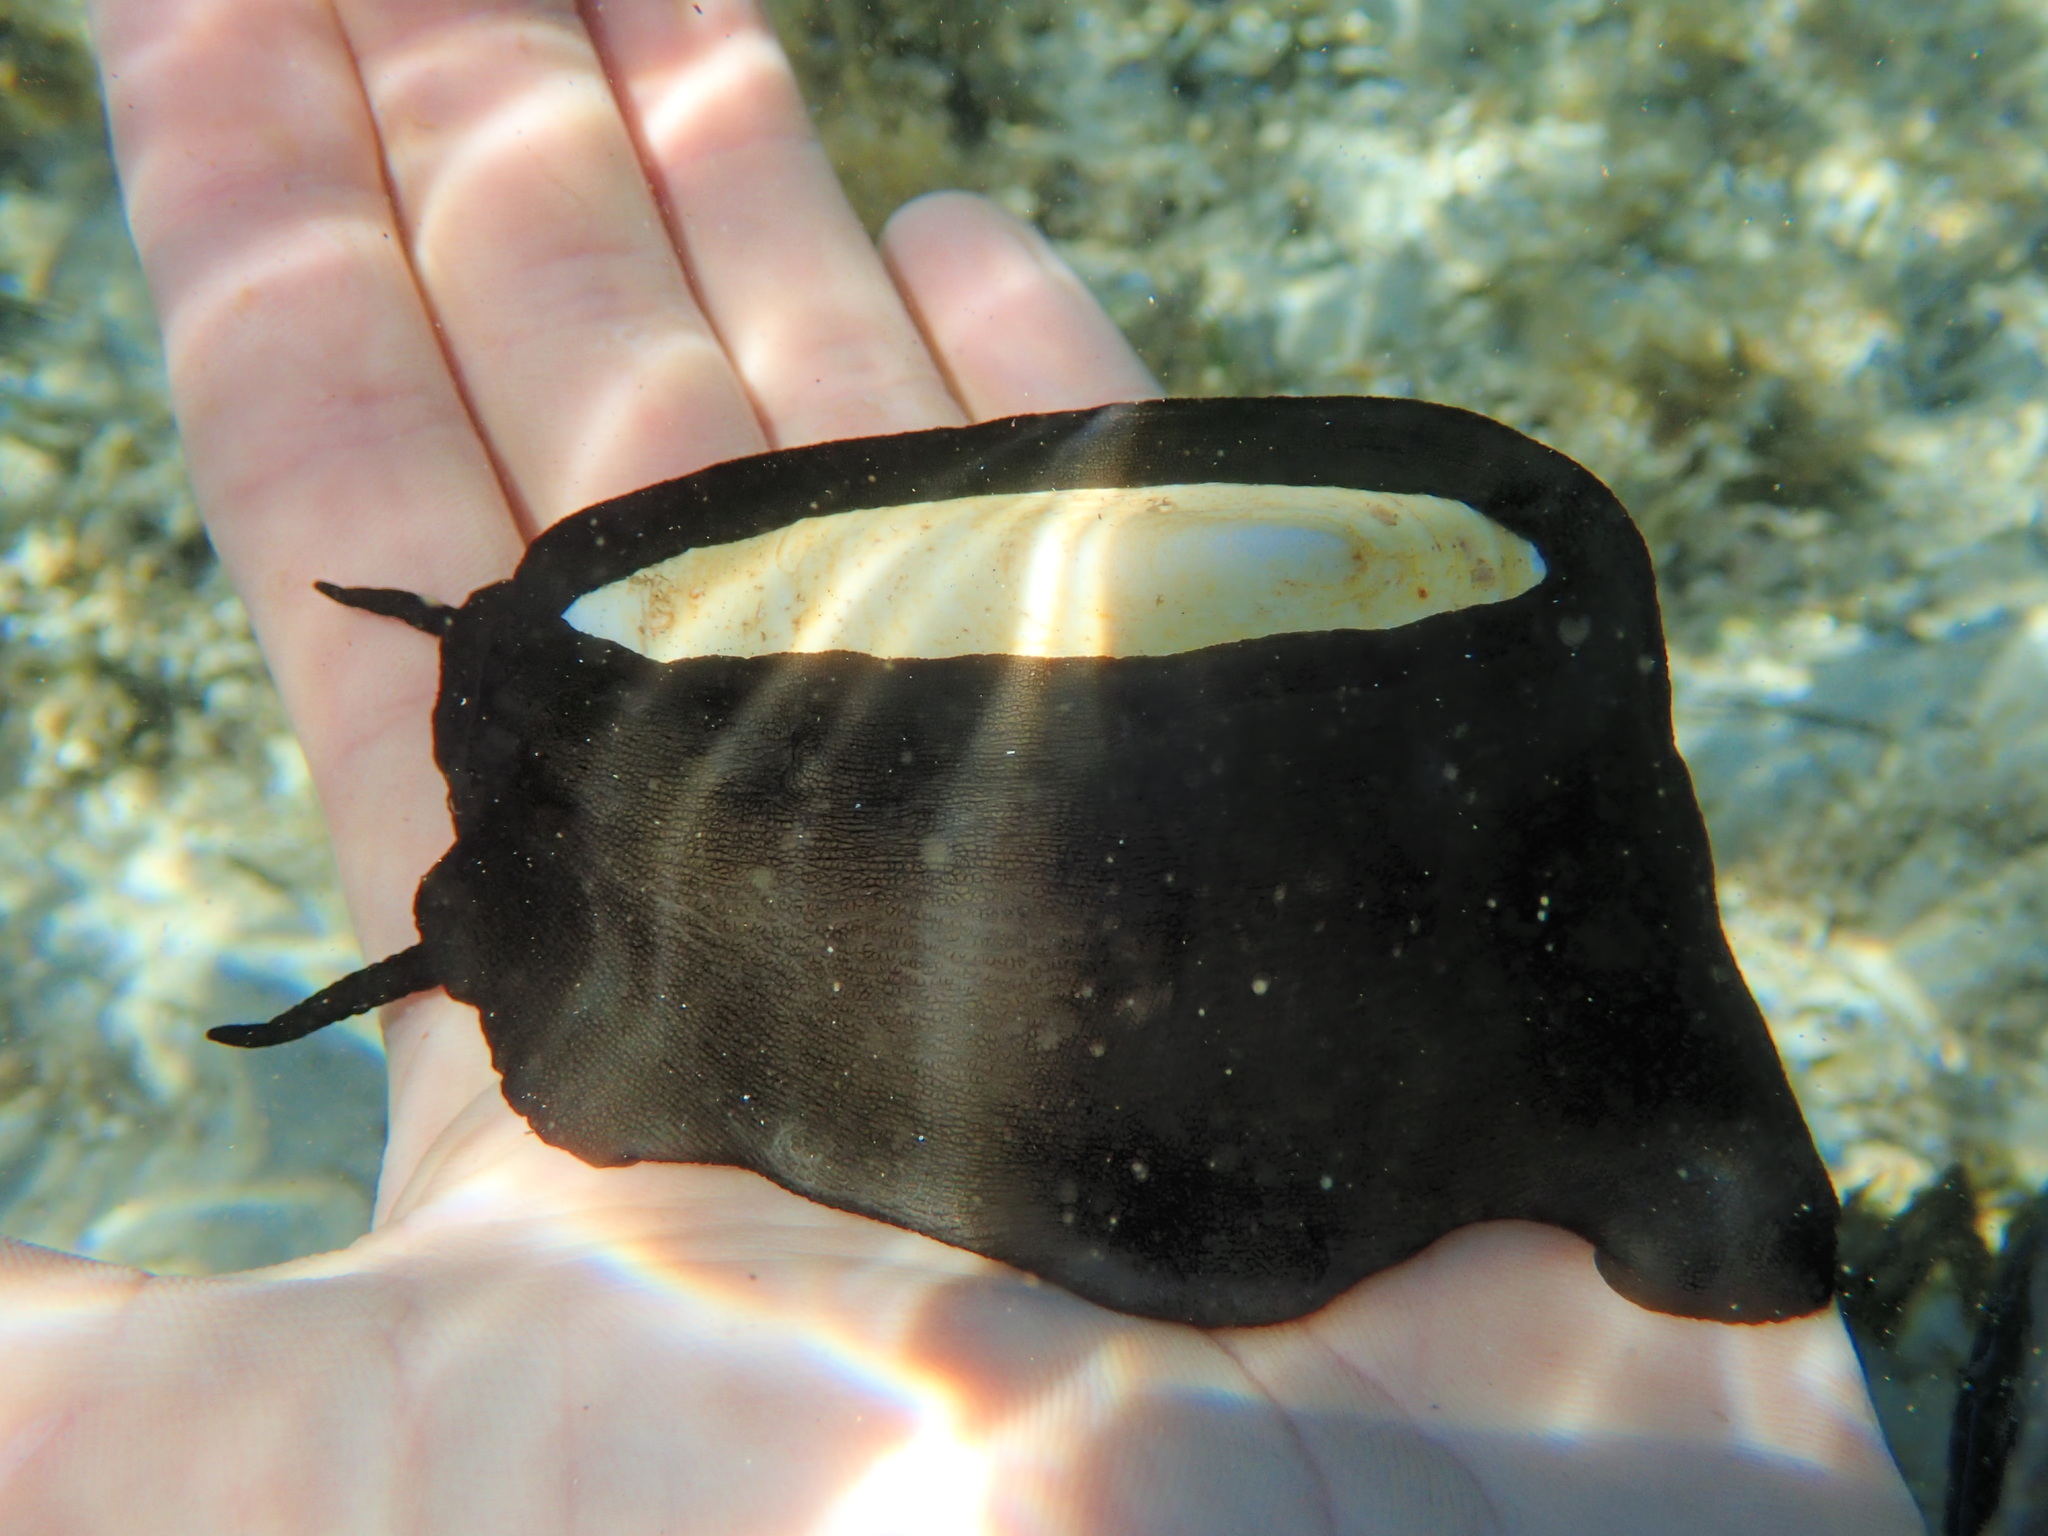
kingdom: Animalia
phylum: Mollusca
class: Gastropoda
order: Lepetellida
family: Fissurellidae
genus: Scutus
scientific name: Scutus antipodes
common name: Duckbill shell
